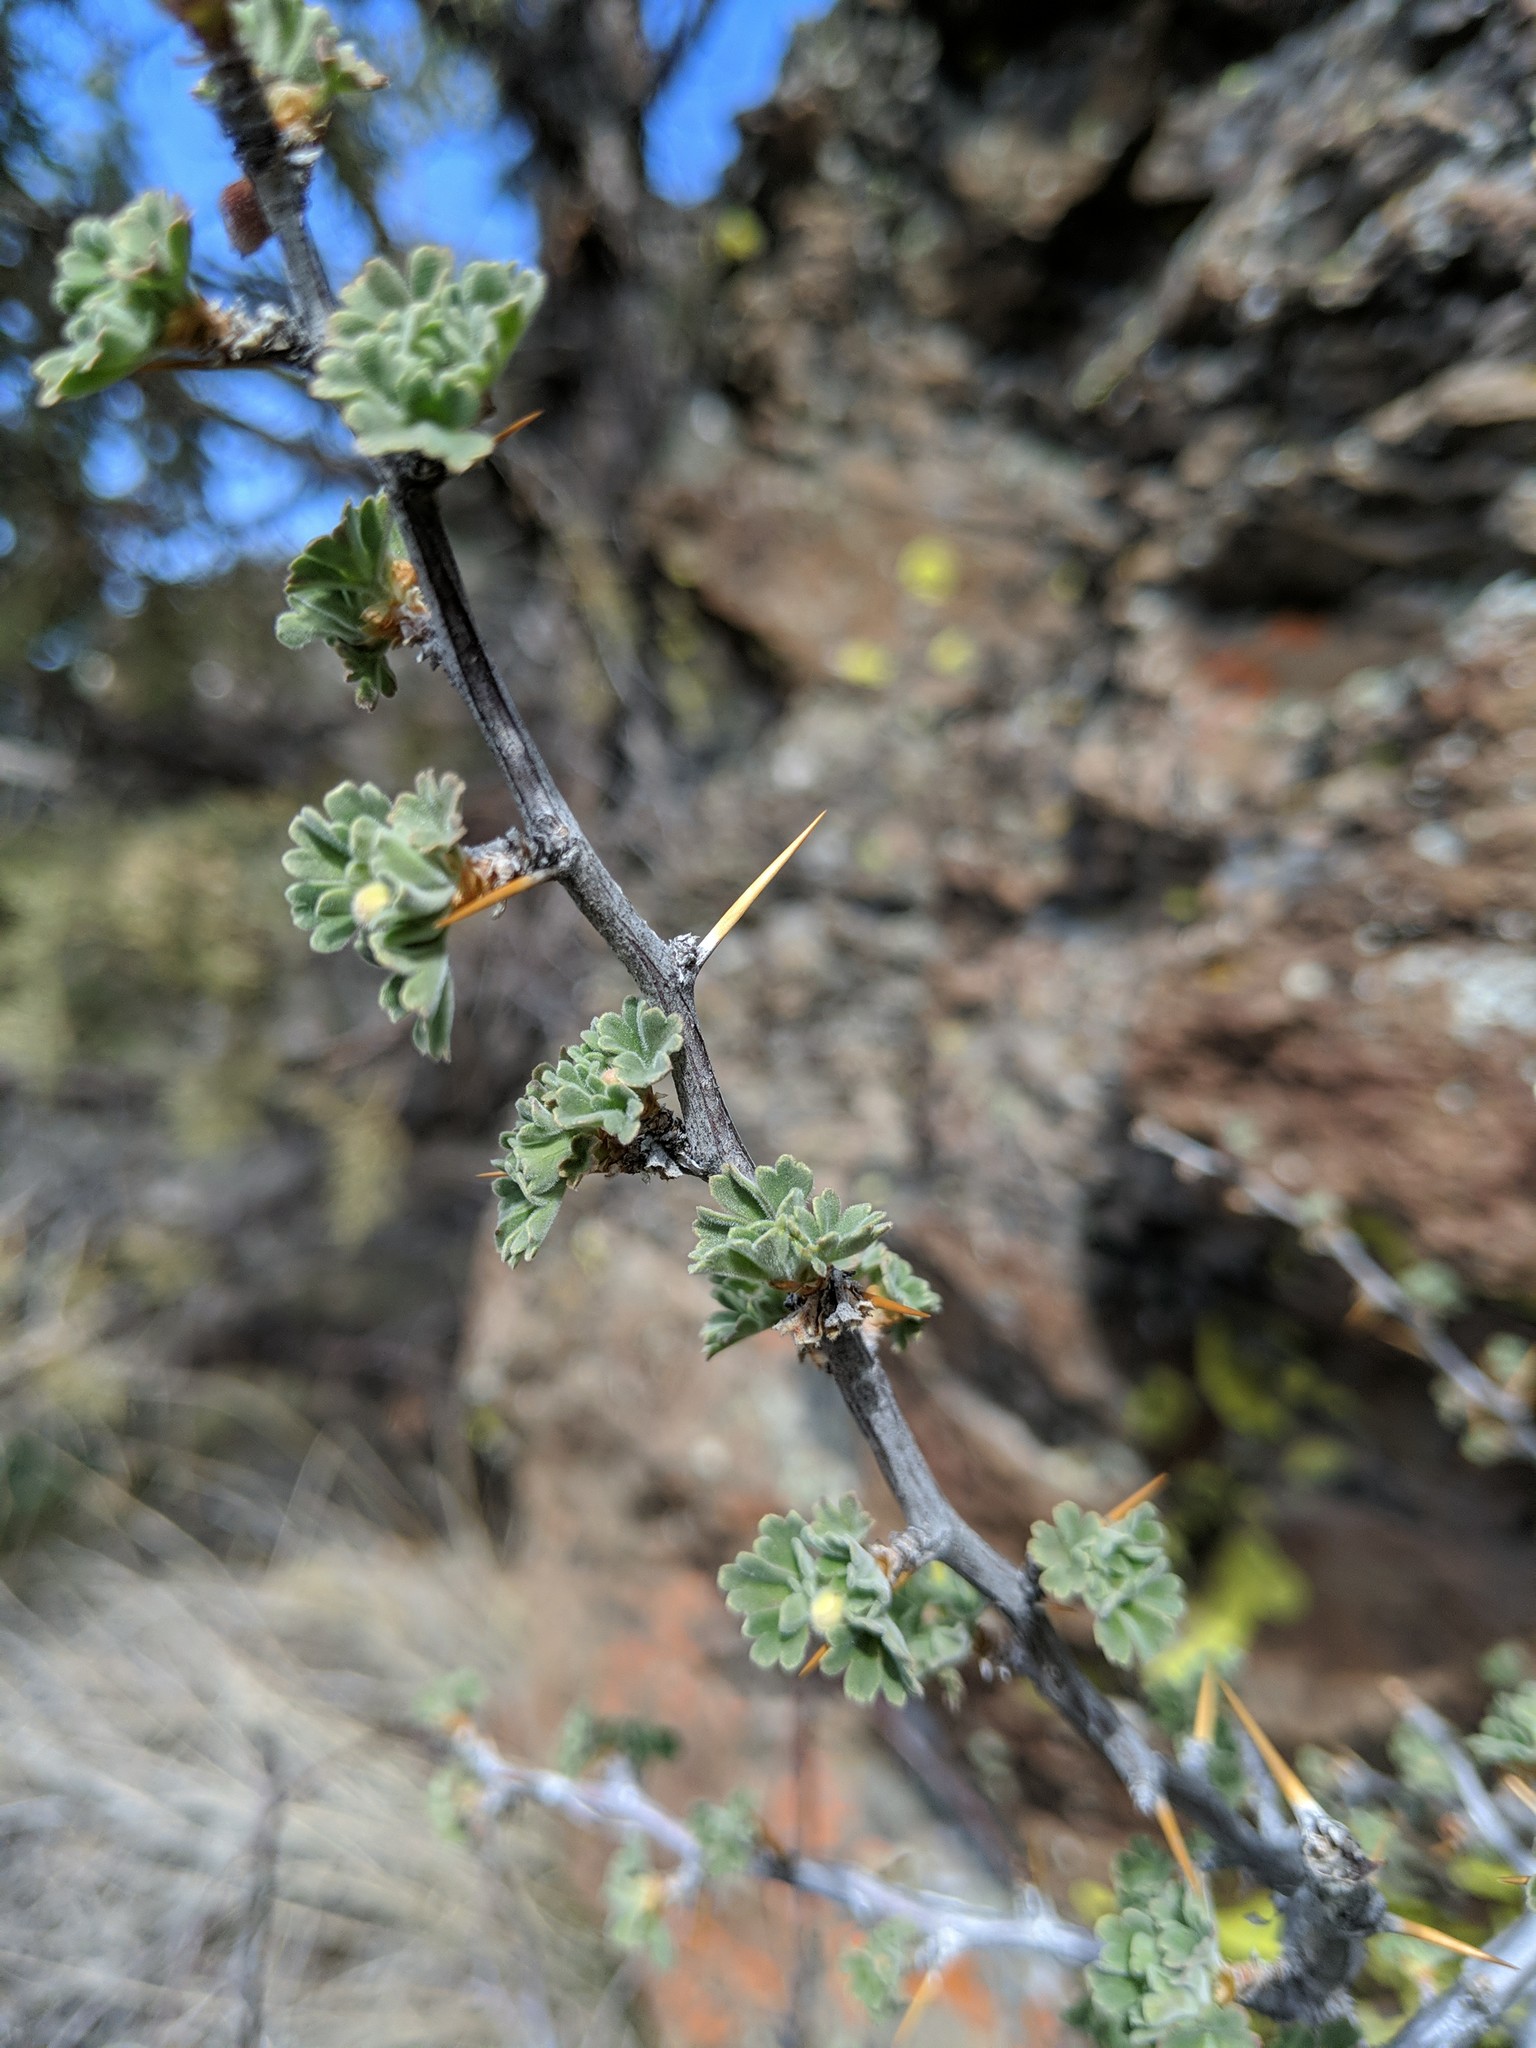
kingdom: Plantae
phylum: Tracheophyta
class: Magnoliopsida
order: Saxifragales
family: Grossulariaceae
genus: Ribes
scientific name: Ribes velutinum
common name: Desert gooseberry
